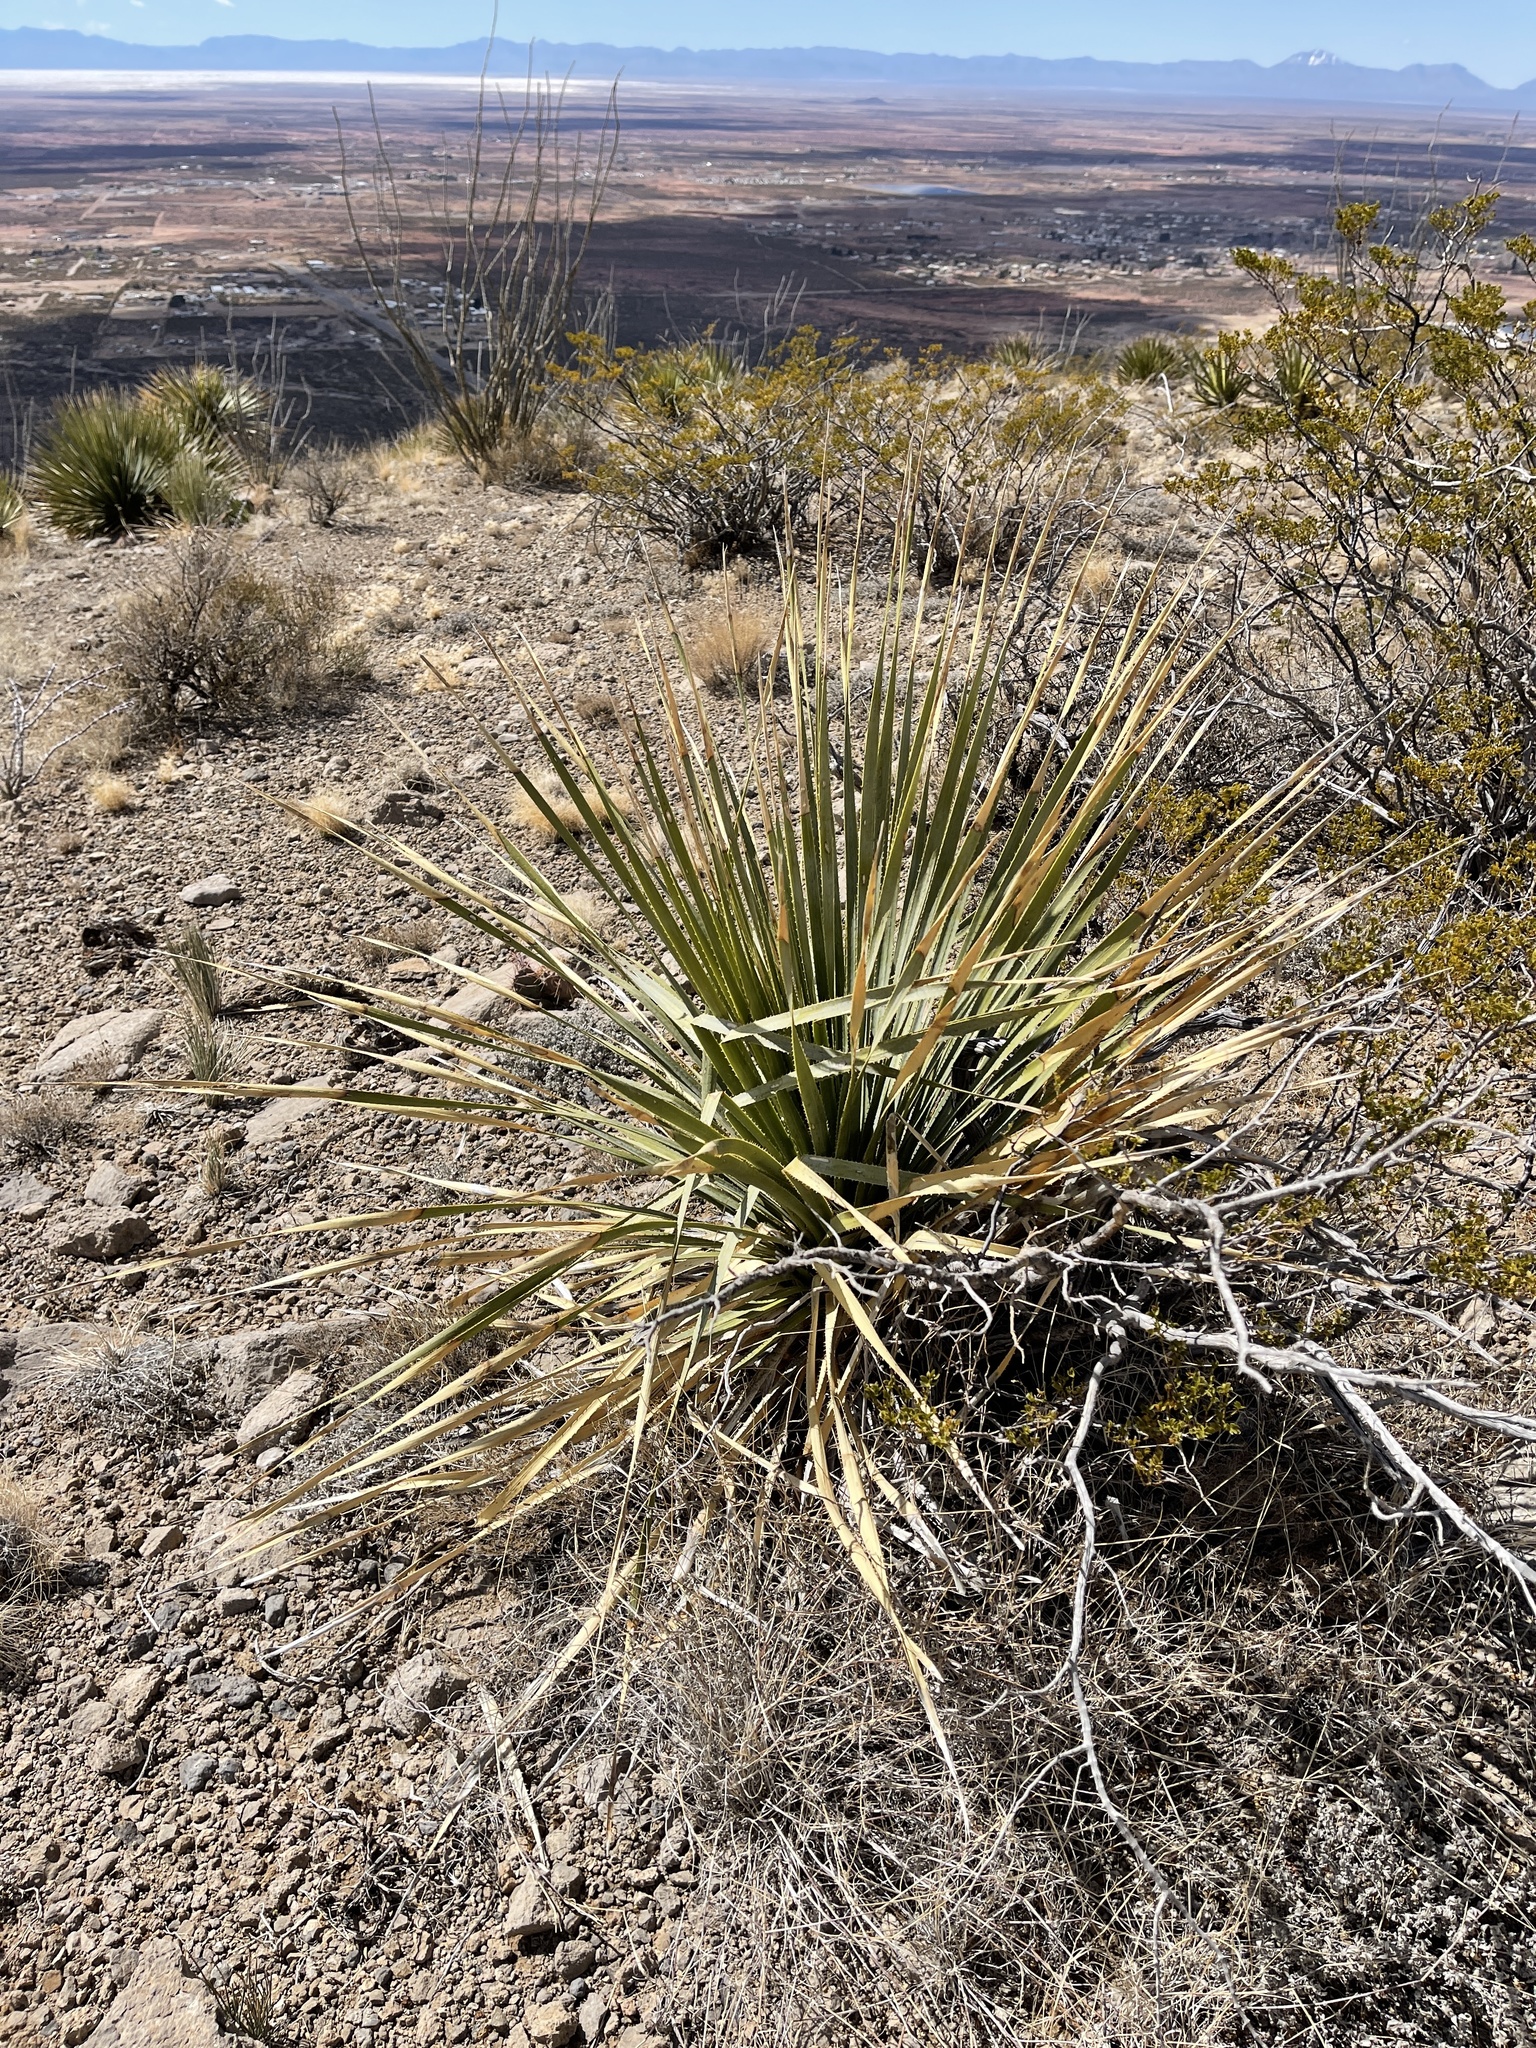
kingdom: Plantae
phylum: Tracheophyta
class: Liliopsida
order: Asparagales
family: Asparagaceae
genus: Dasylirion
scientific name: Dasylirion wheeleri
